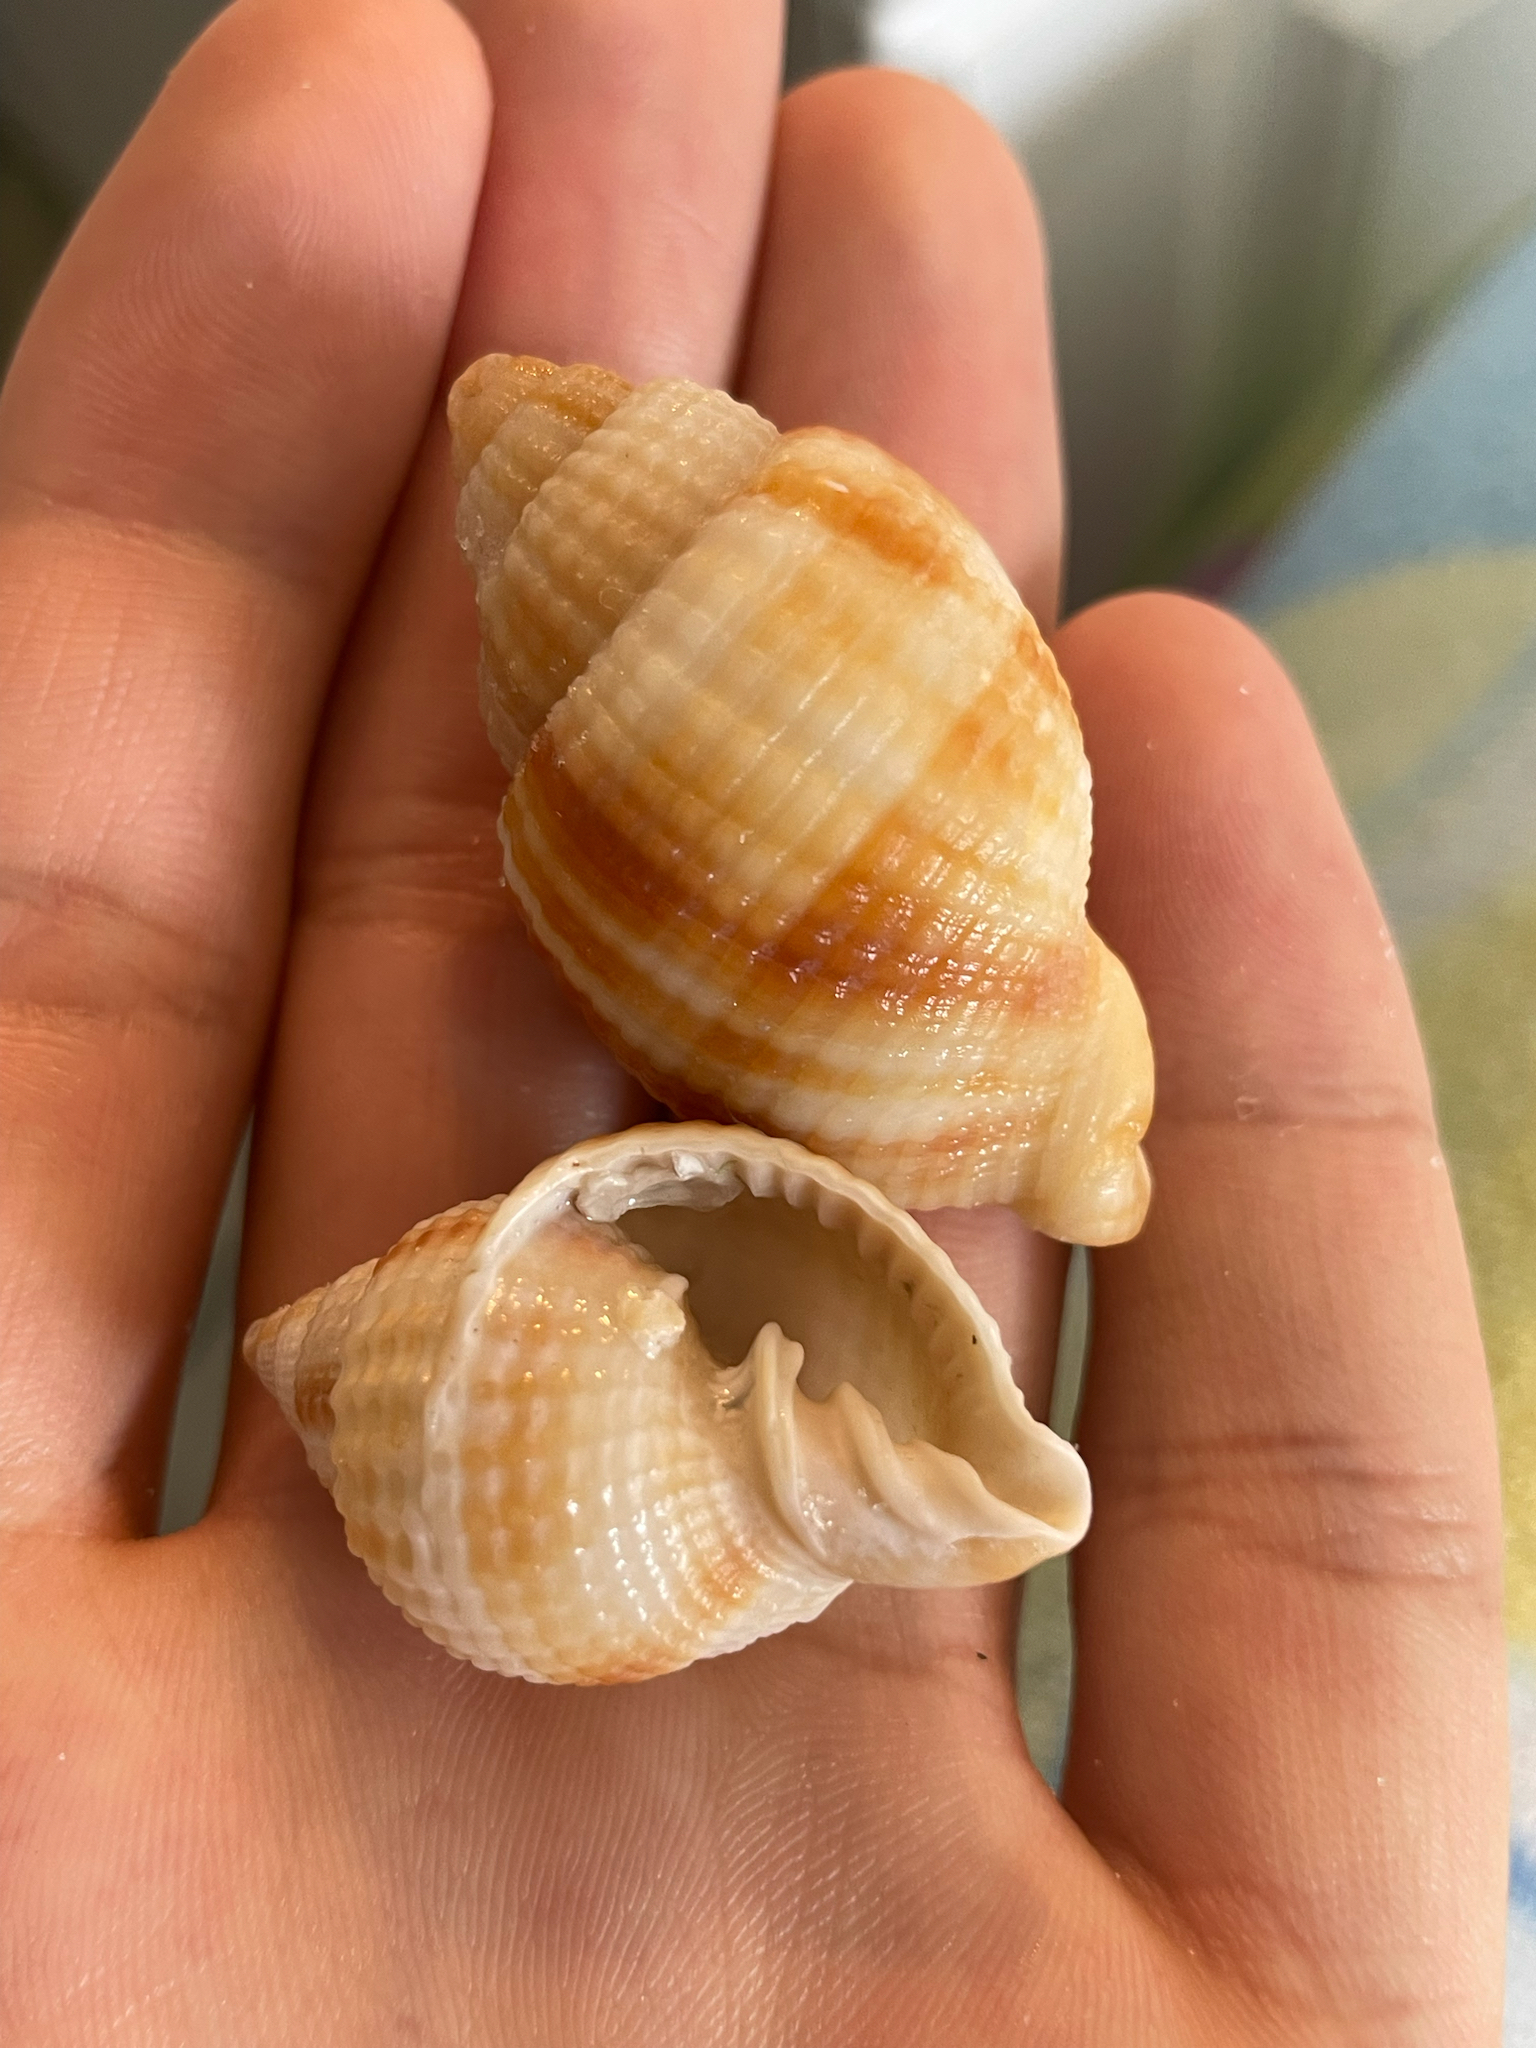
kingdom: Animalia
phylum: Mollusca
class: Gastropoda
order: Neogastropoda
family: Cancellariidae
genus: Cancellaria
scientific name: Cancellaria reticulata
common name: Common nutmeg
